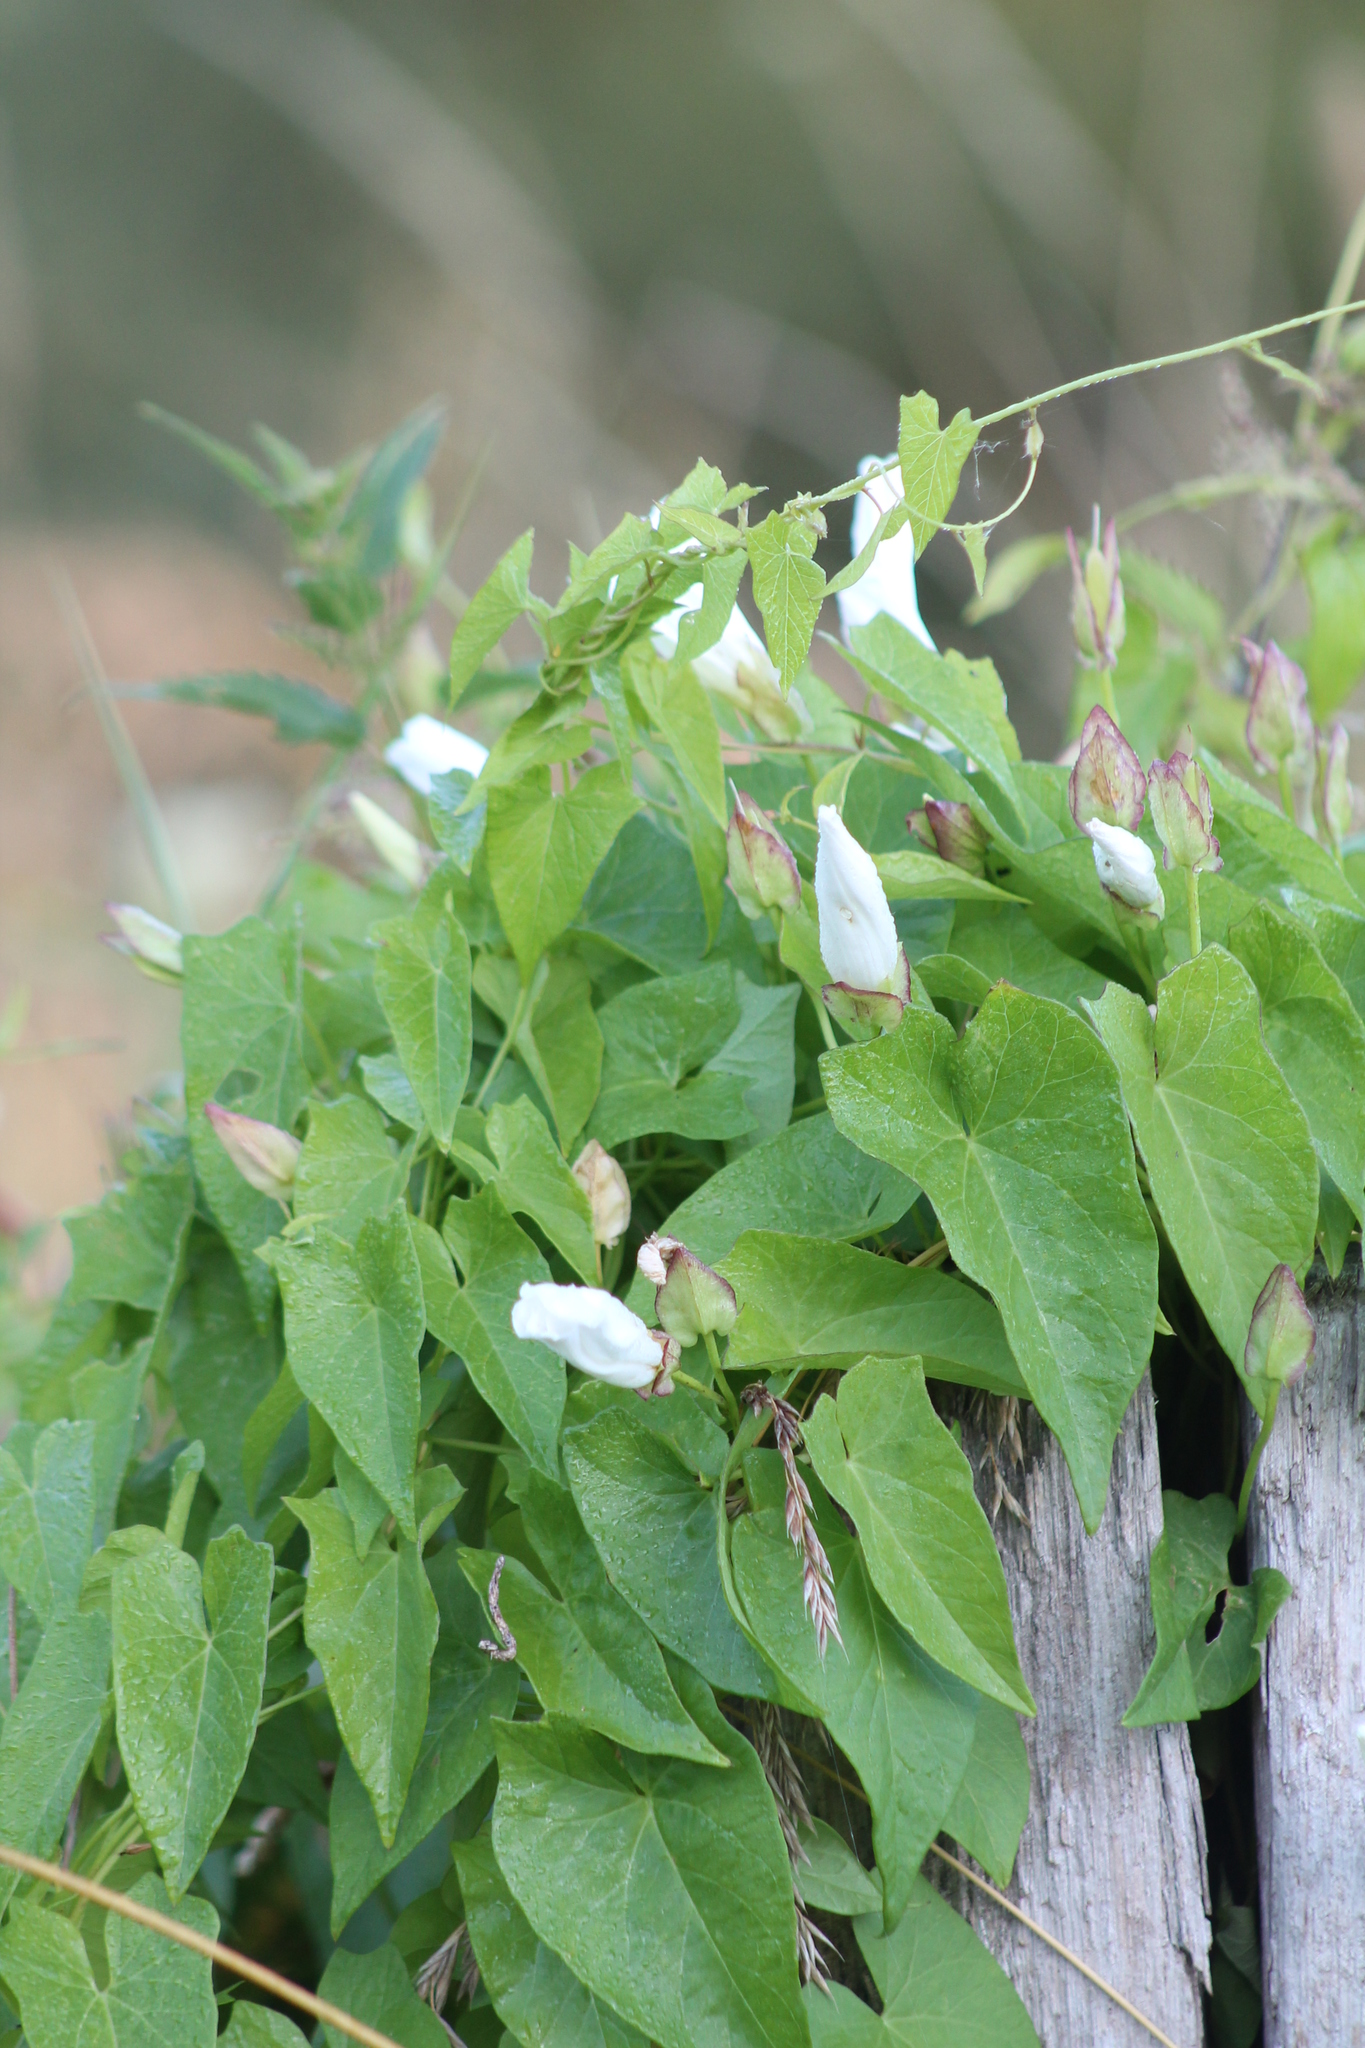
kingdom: Plantae
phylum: Tracheophyta
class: Magnoliopsida
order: Solanales
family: Convolvulaceae
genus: Calystegia
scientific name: Calystegia sepium
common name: Hedge bindweed
